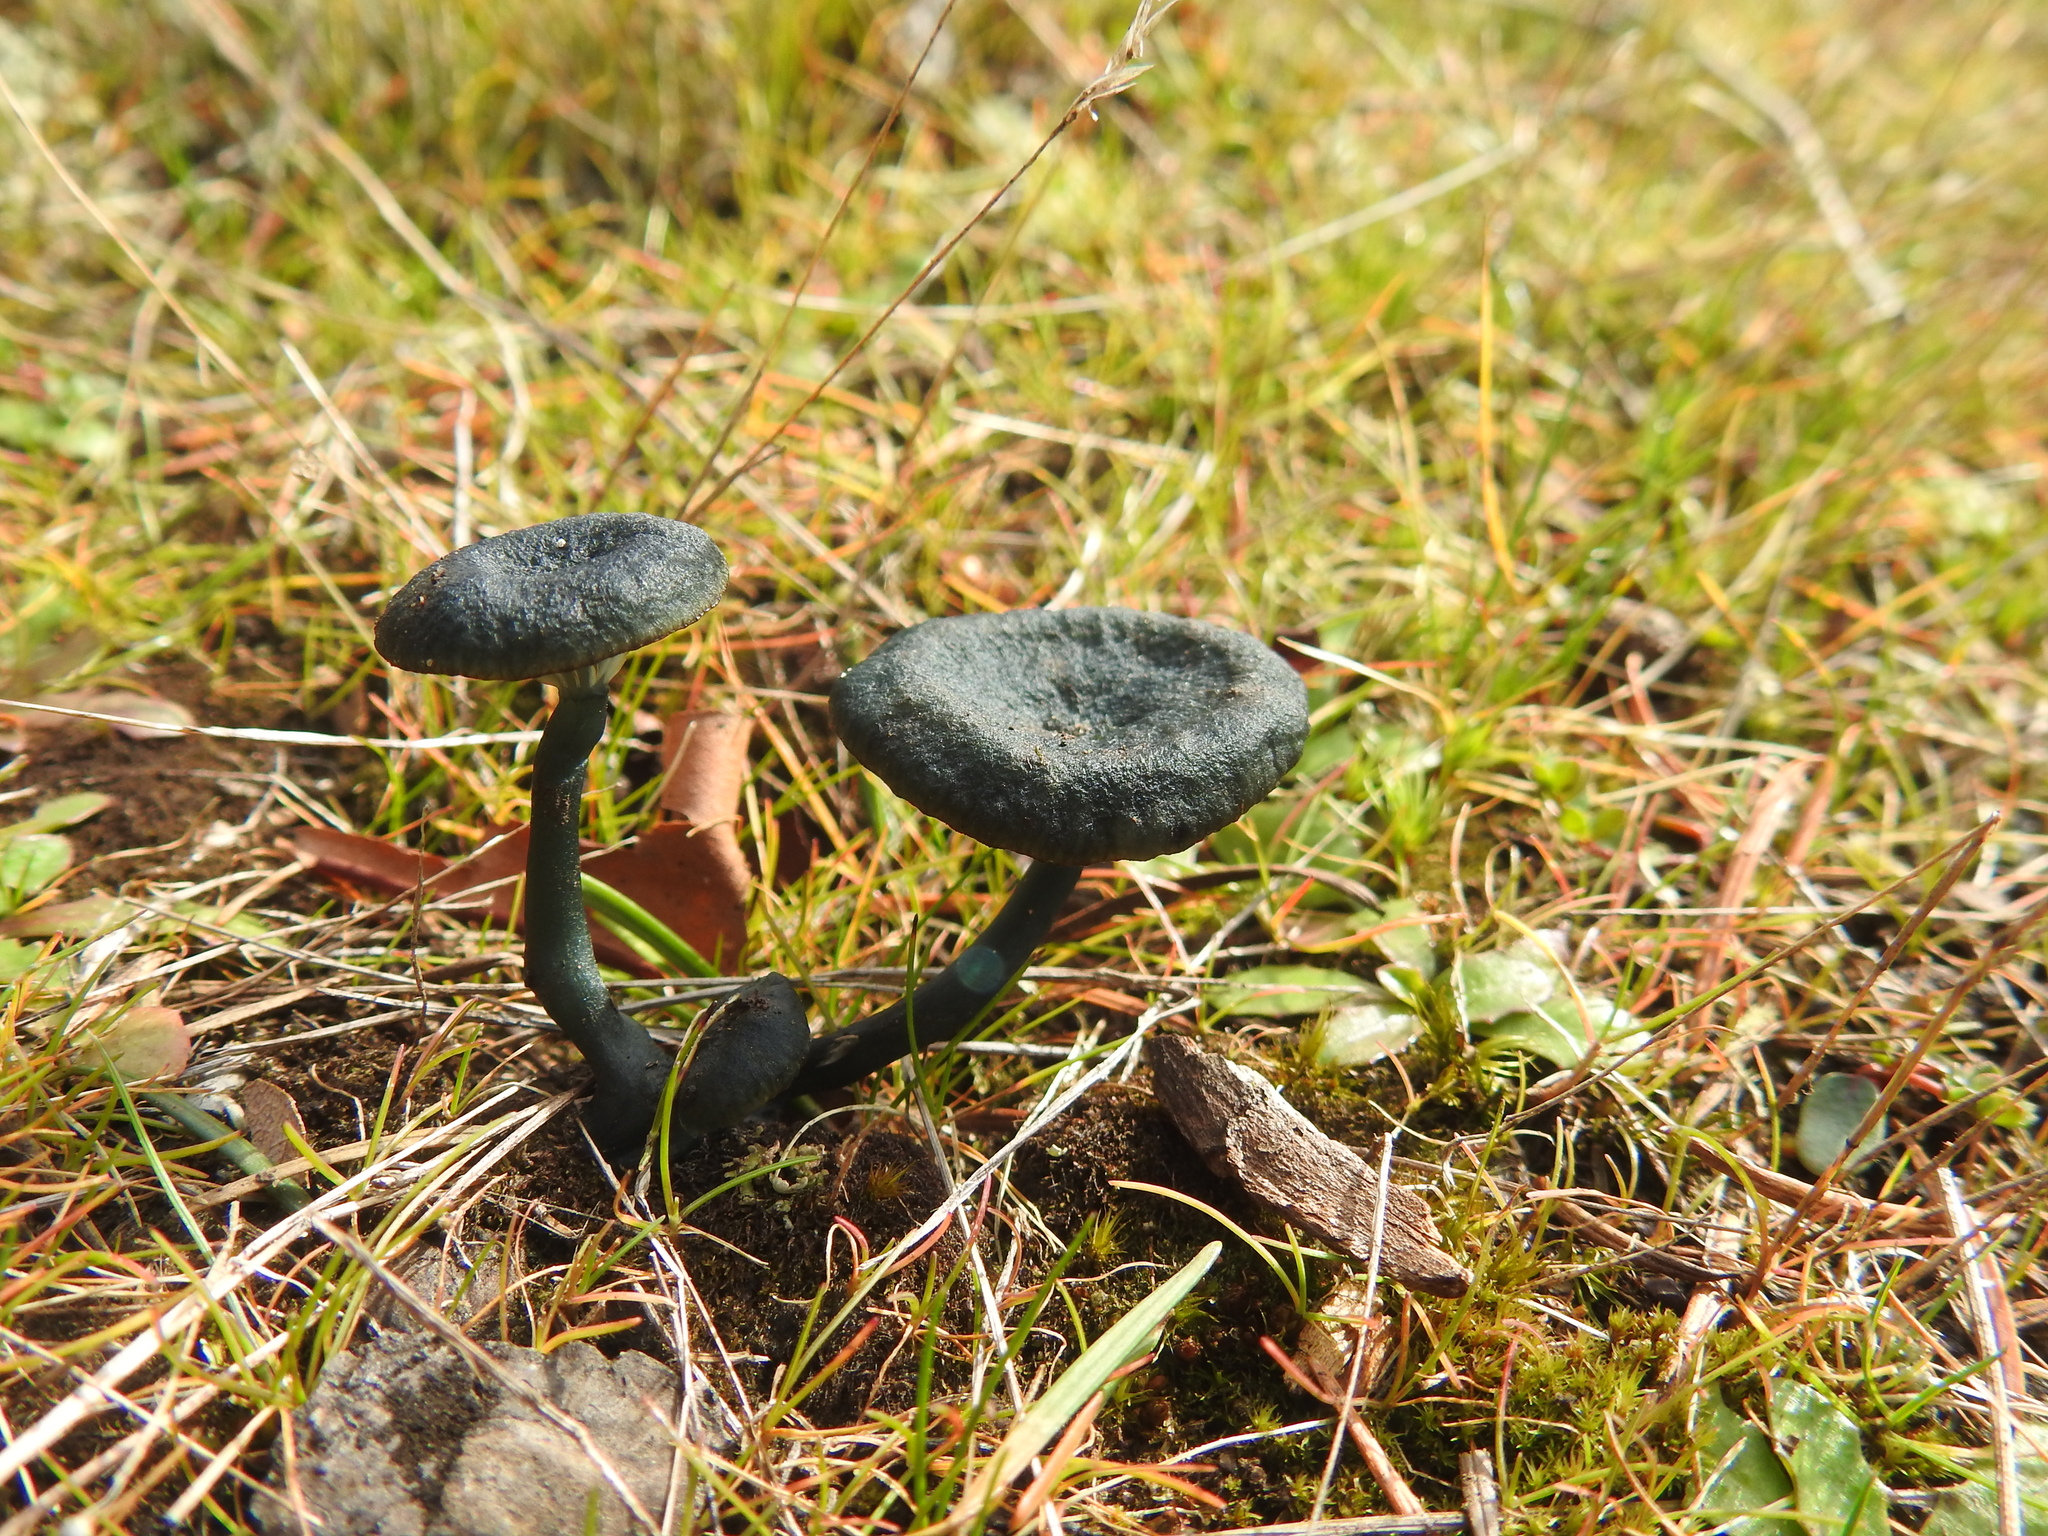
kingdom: Fungi
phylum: Basidiomycota
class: Agaricomycetes
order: Agaricales
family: Hygrophoraceae
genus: Arrhenia
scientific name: Arrhenia chlorocyanea
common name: Verdigris navel
